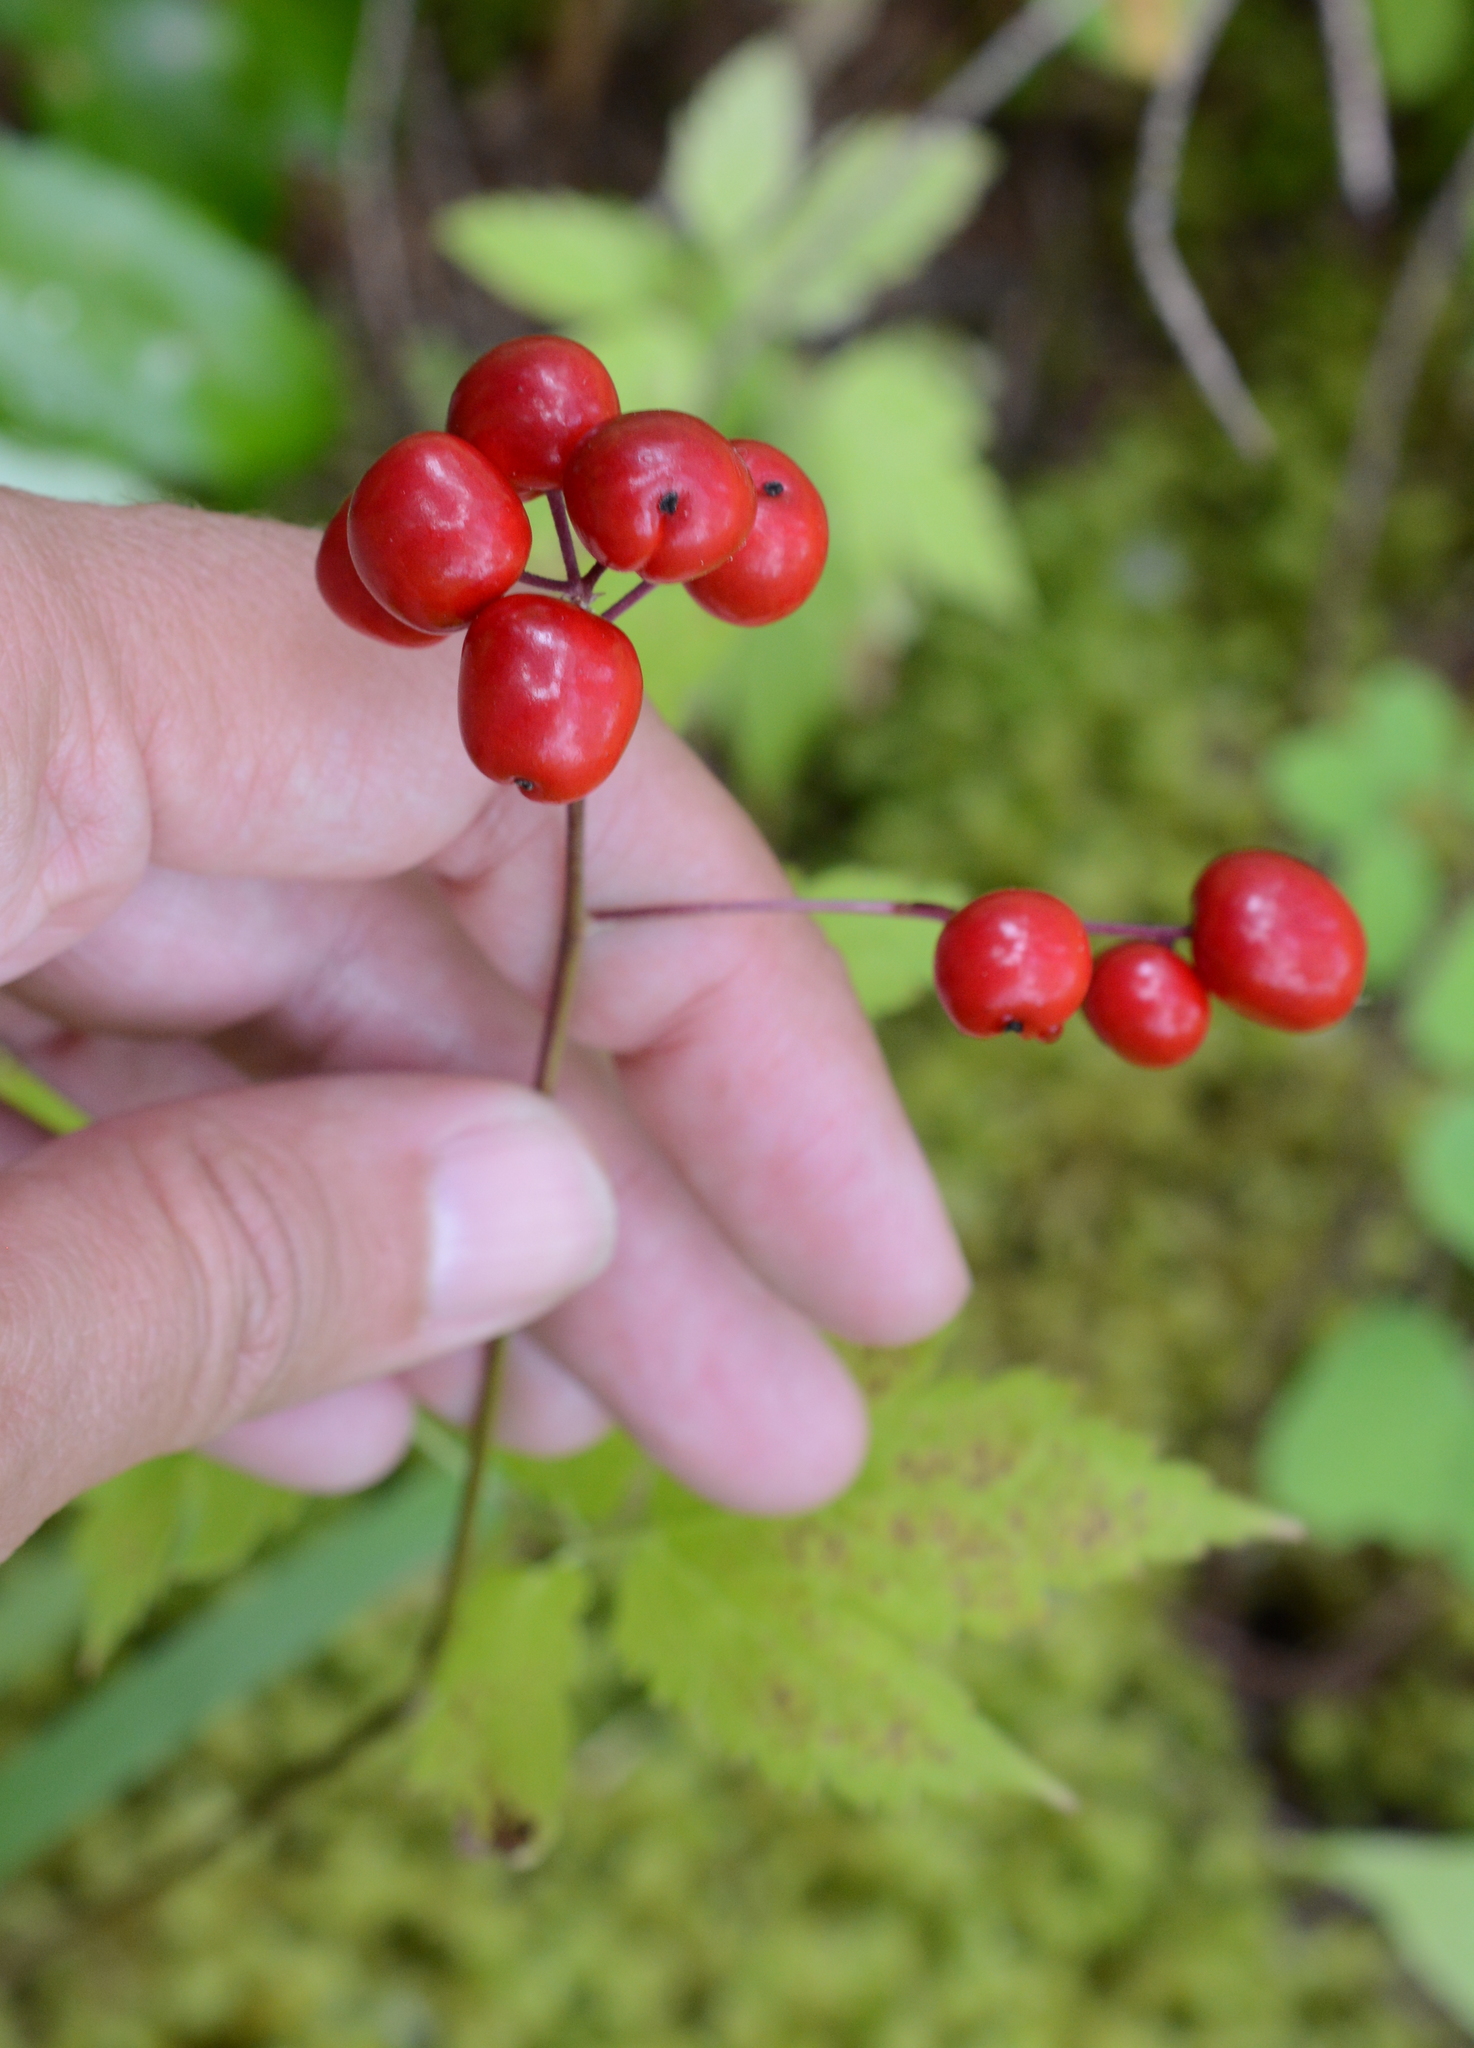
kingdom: Plantae
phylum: Tracheophyta
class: Magnoliopsida
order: Ranunculales
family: Ranunculaceae
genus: Actaea
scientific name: Actaea rubra
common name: Red baneberry
